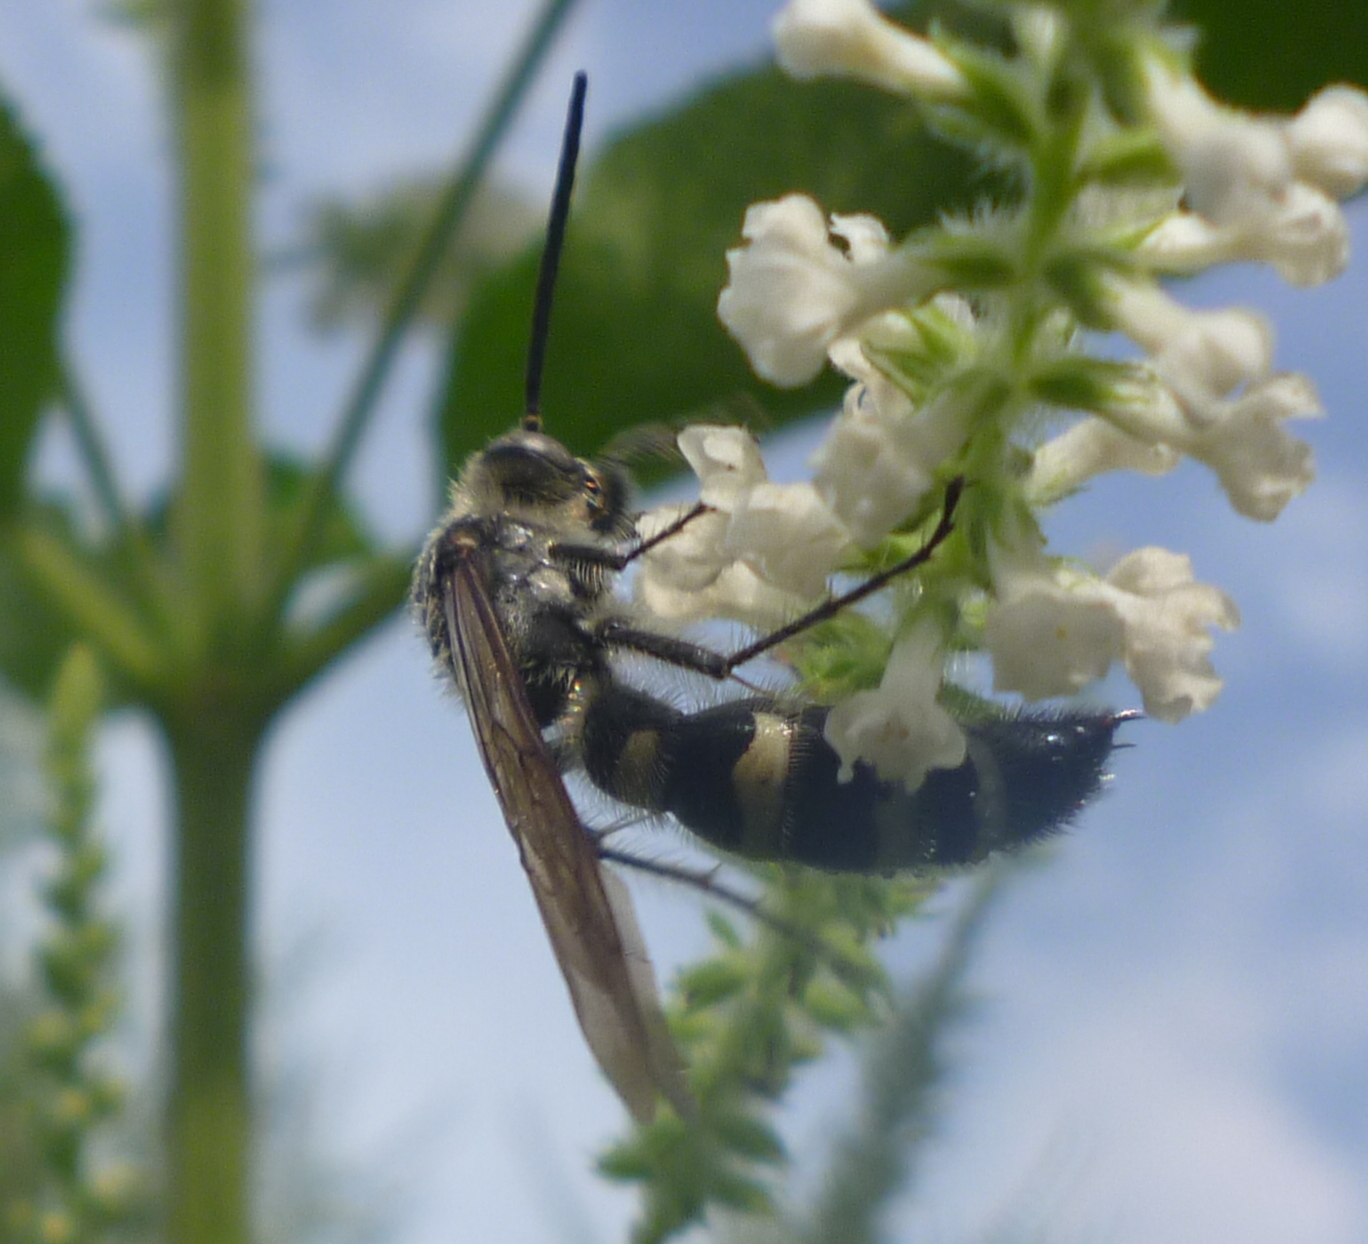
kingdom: Animalia
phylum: Arthropoda
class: Insecta
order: Hymenoptera
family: Scoliidae
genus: Dielis
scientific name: Dielis
